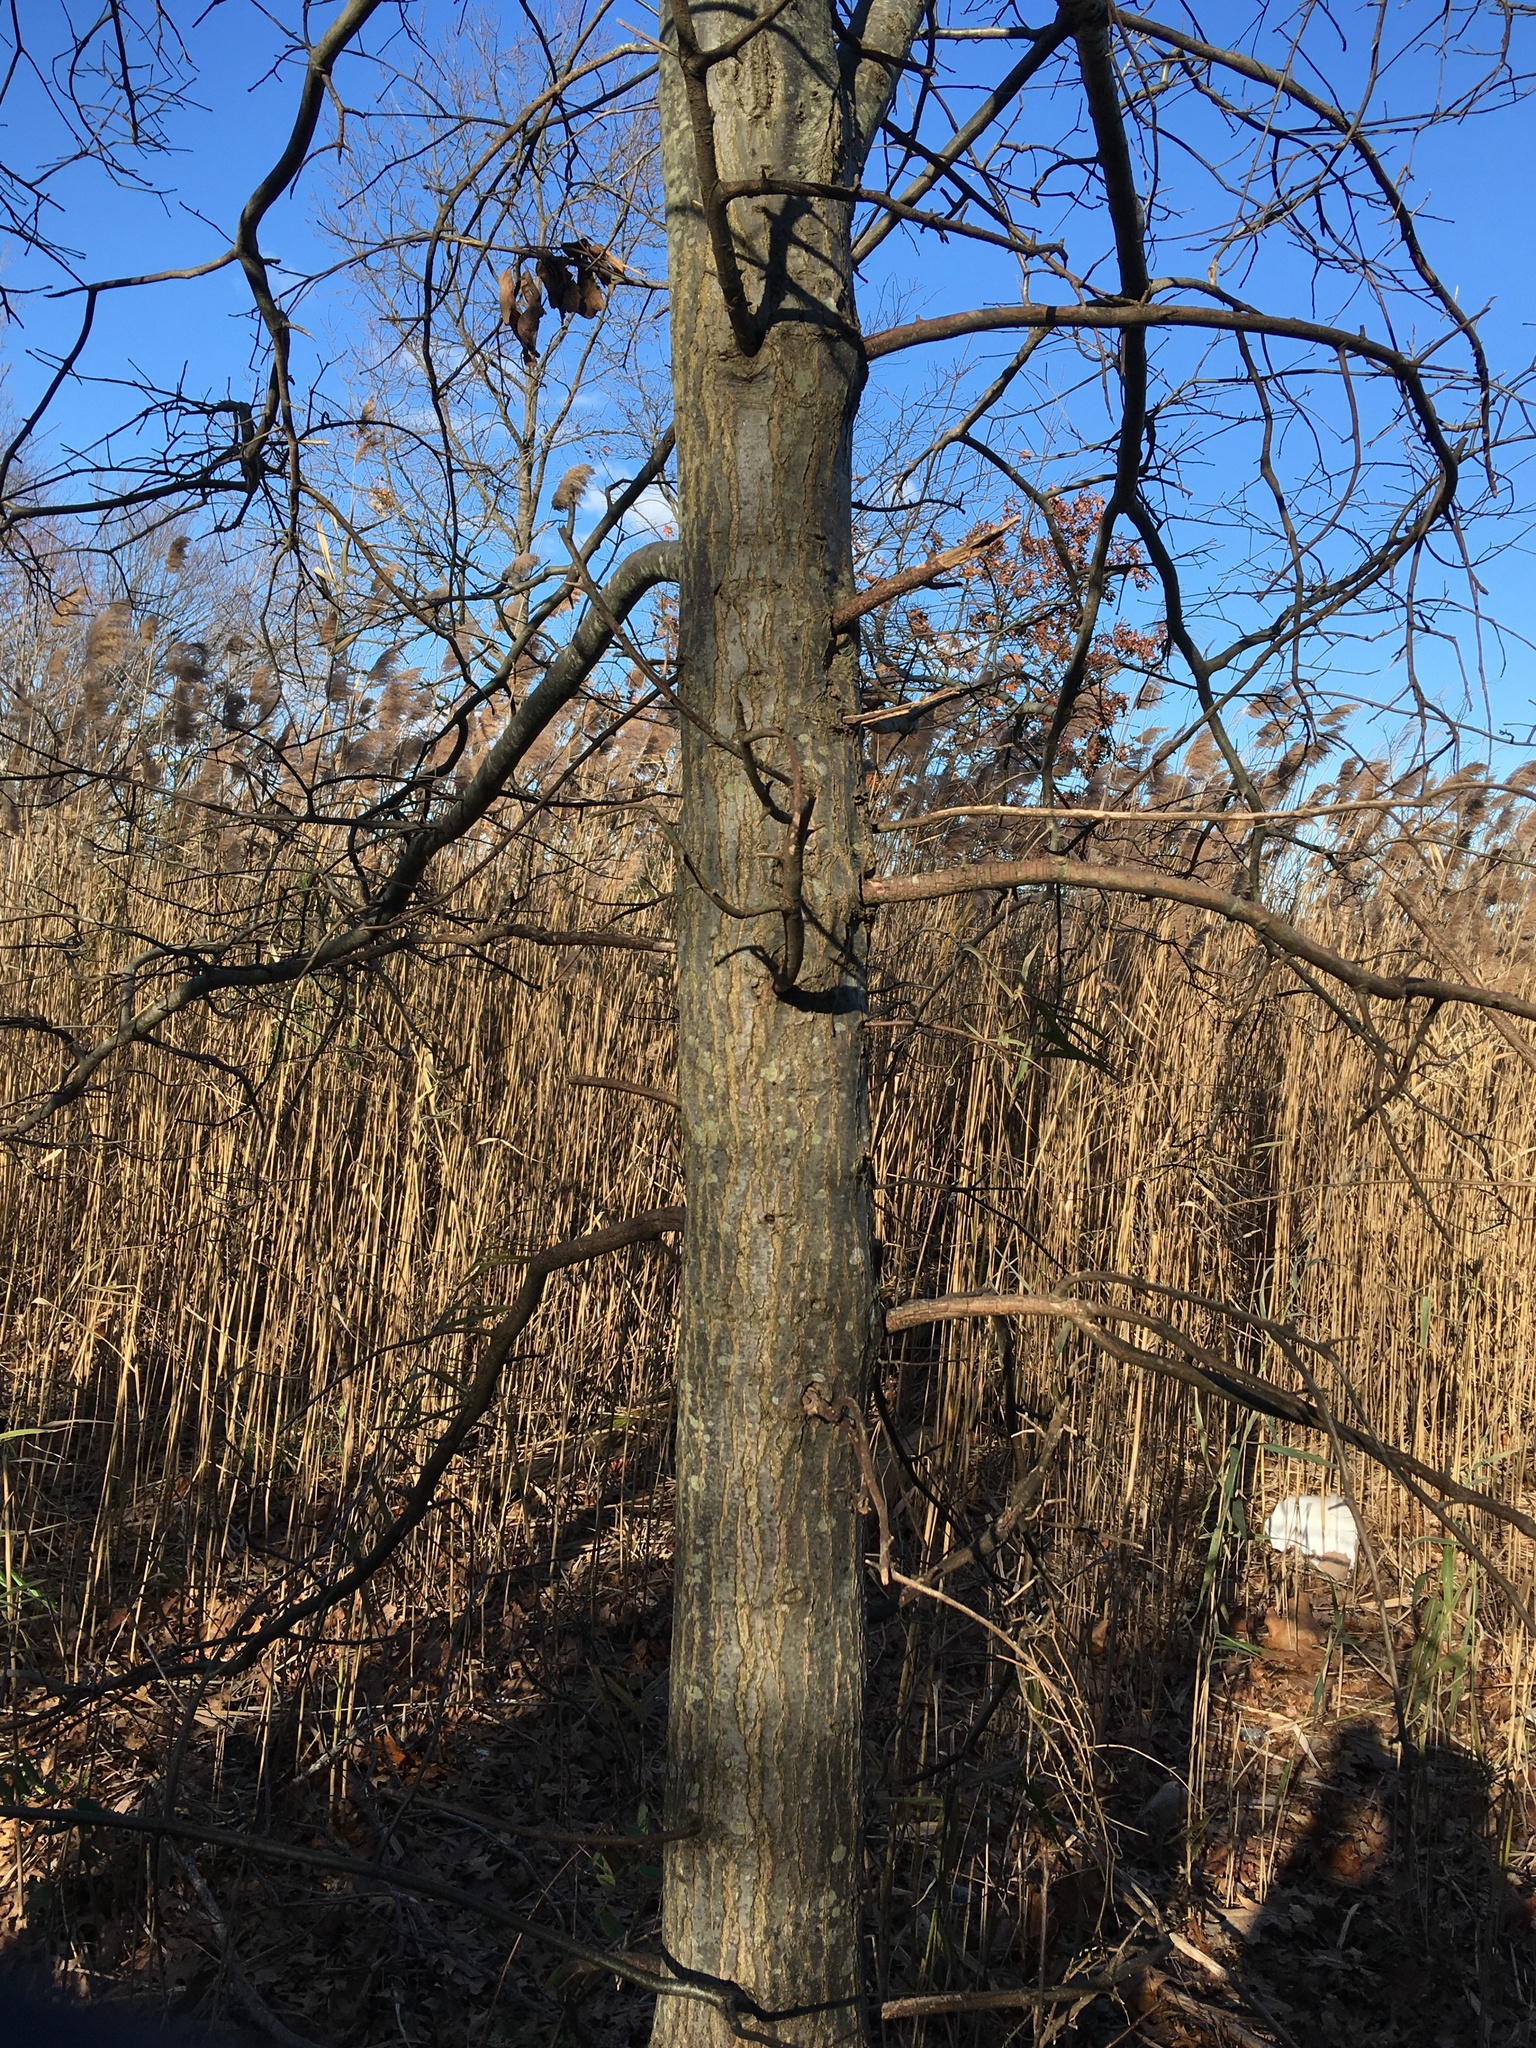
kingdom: Plantae
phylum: Tracheophyta
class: Magnoliopsida
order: Fagales
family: Fagaceae
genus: Quercus
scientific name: Quercus palustris
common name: Pin oak
